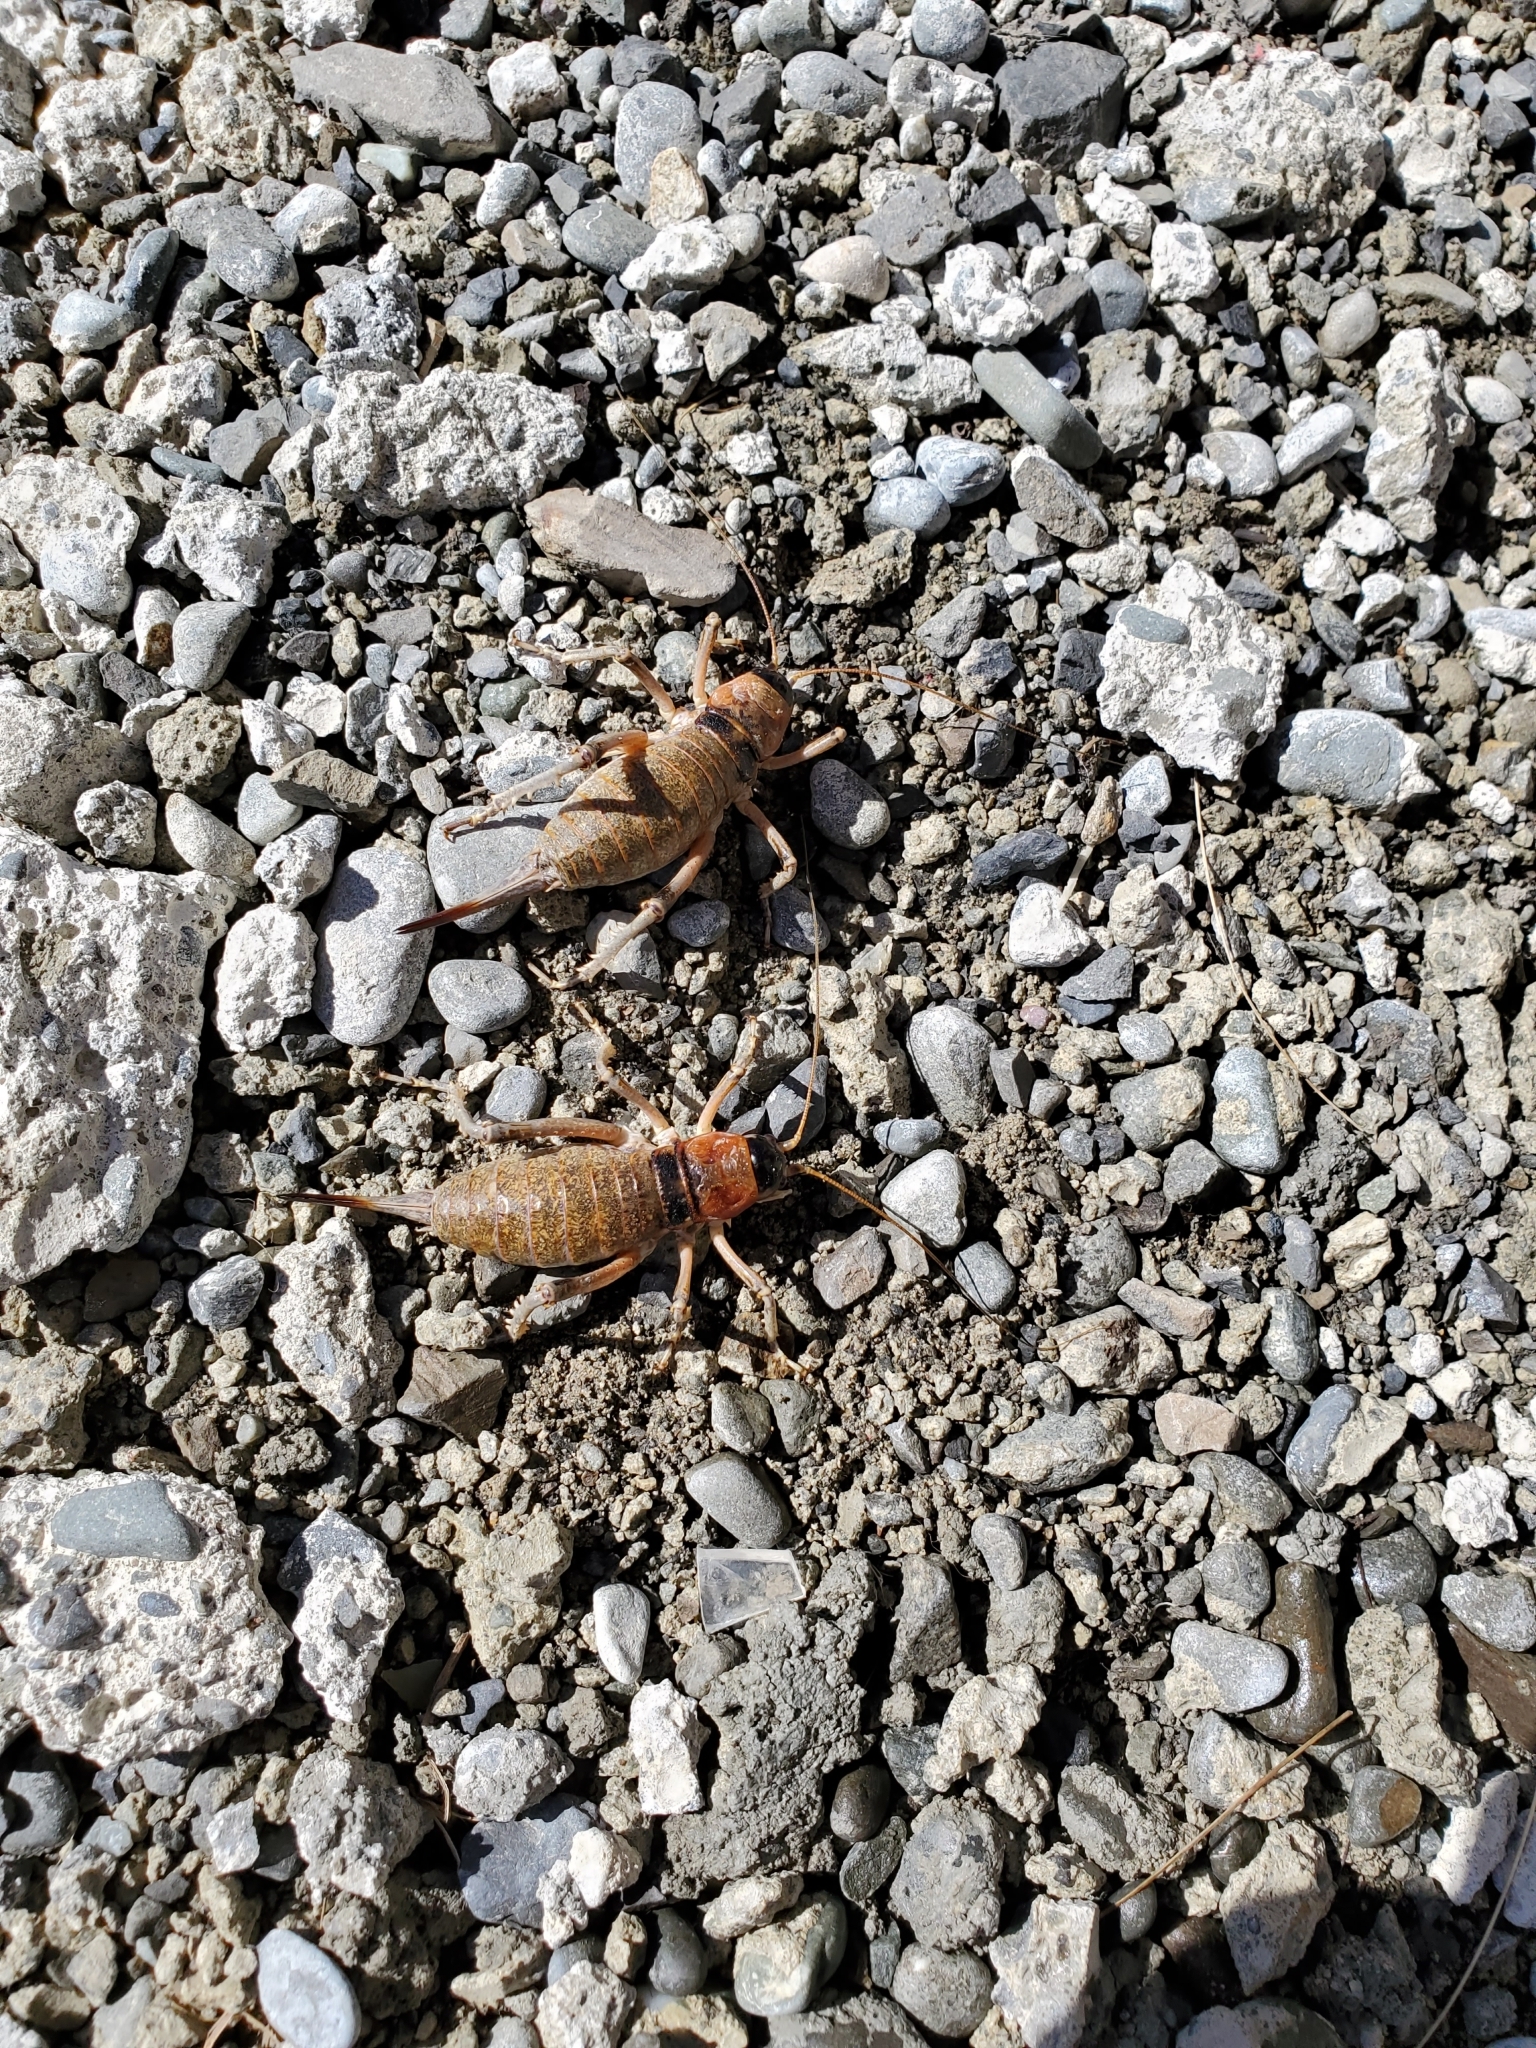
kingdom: Animalia
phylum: Arthropoda
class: Insecta
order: Orthoptera
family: Anostostomatidae
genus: Deinacrida
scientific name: Deinacrida connectens
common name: Scree weta
